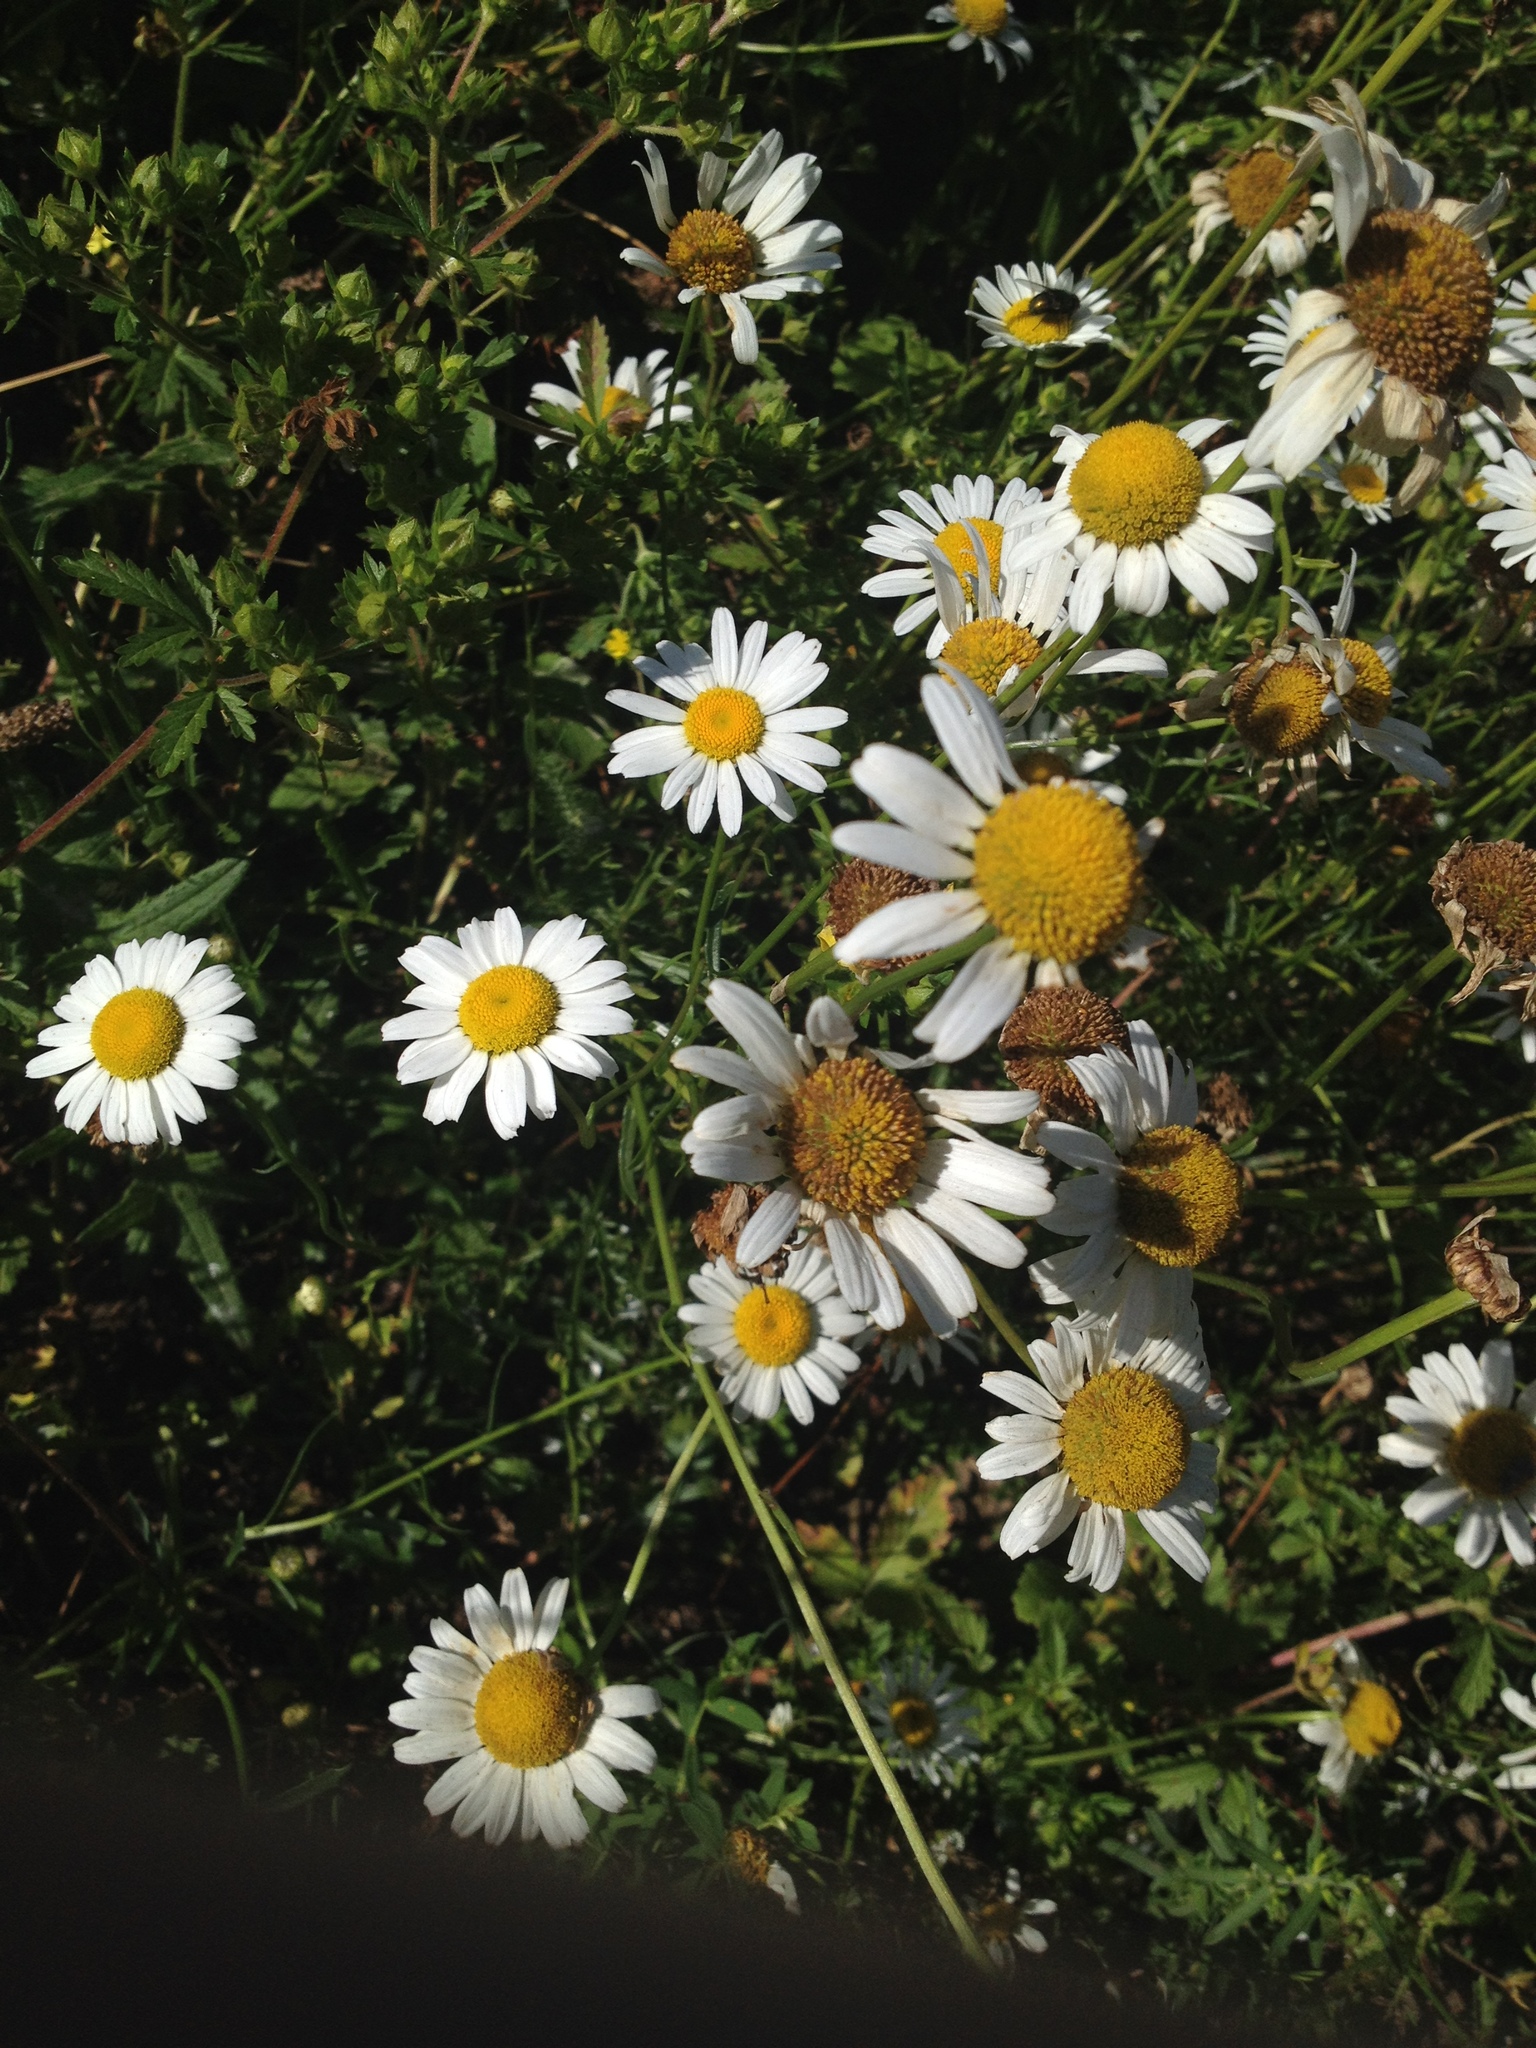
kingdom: Plantae
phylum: Tracheophyta
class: Magnoliopsida
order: Asterales
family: Asteraceae
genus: Leucanthemum
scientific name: Leucanthemum vulgare
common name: Oxeye daisy
